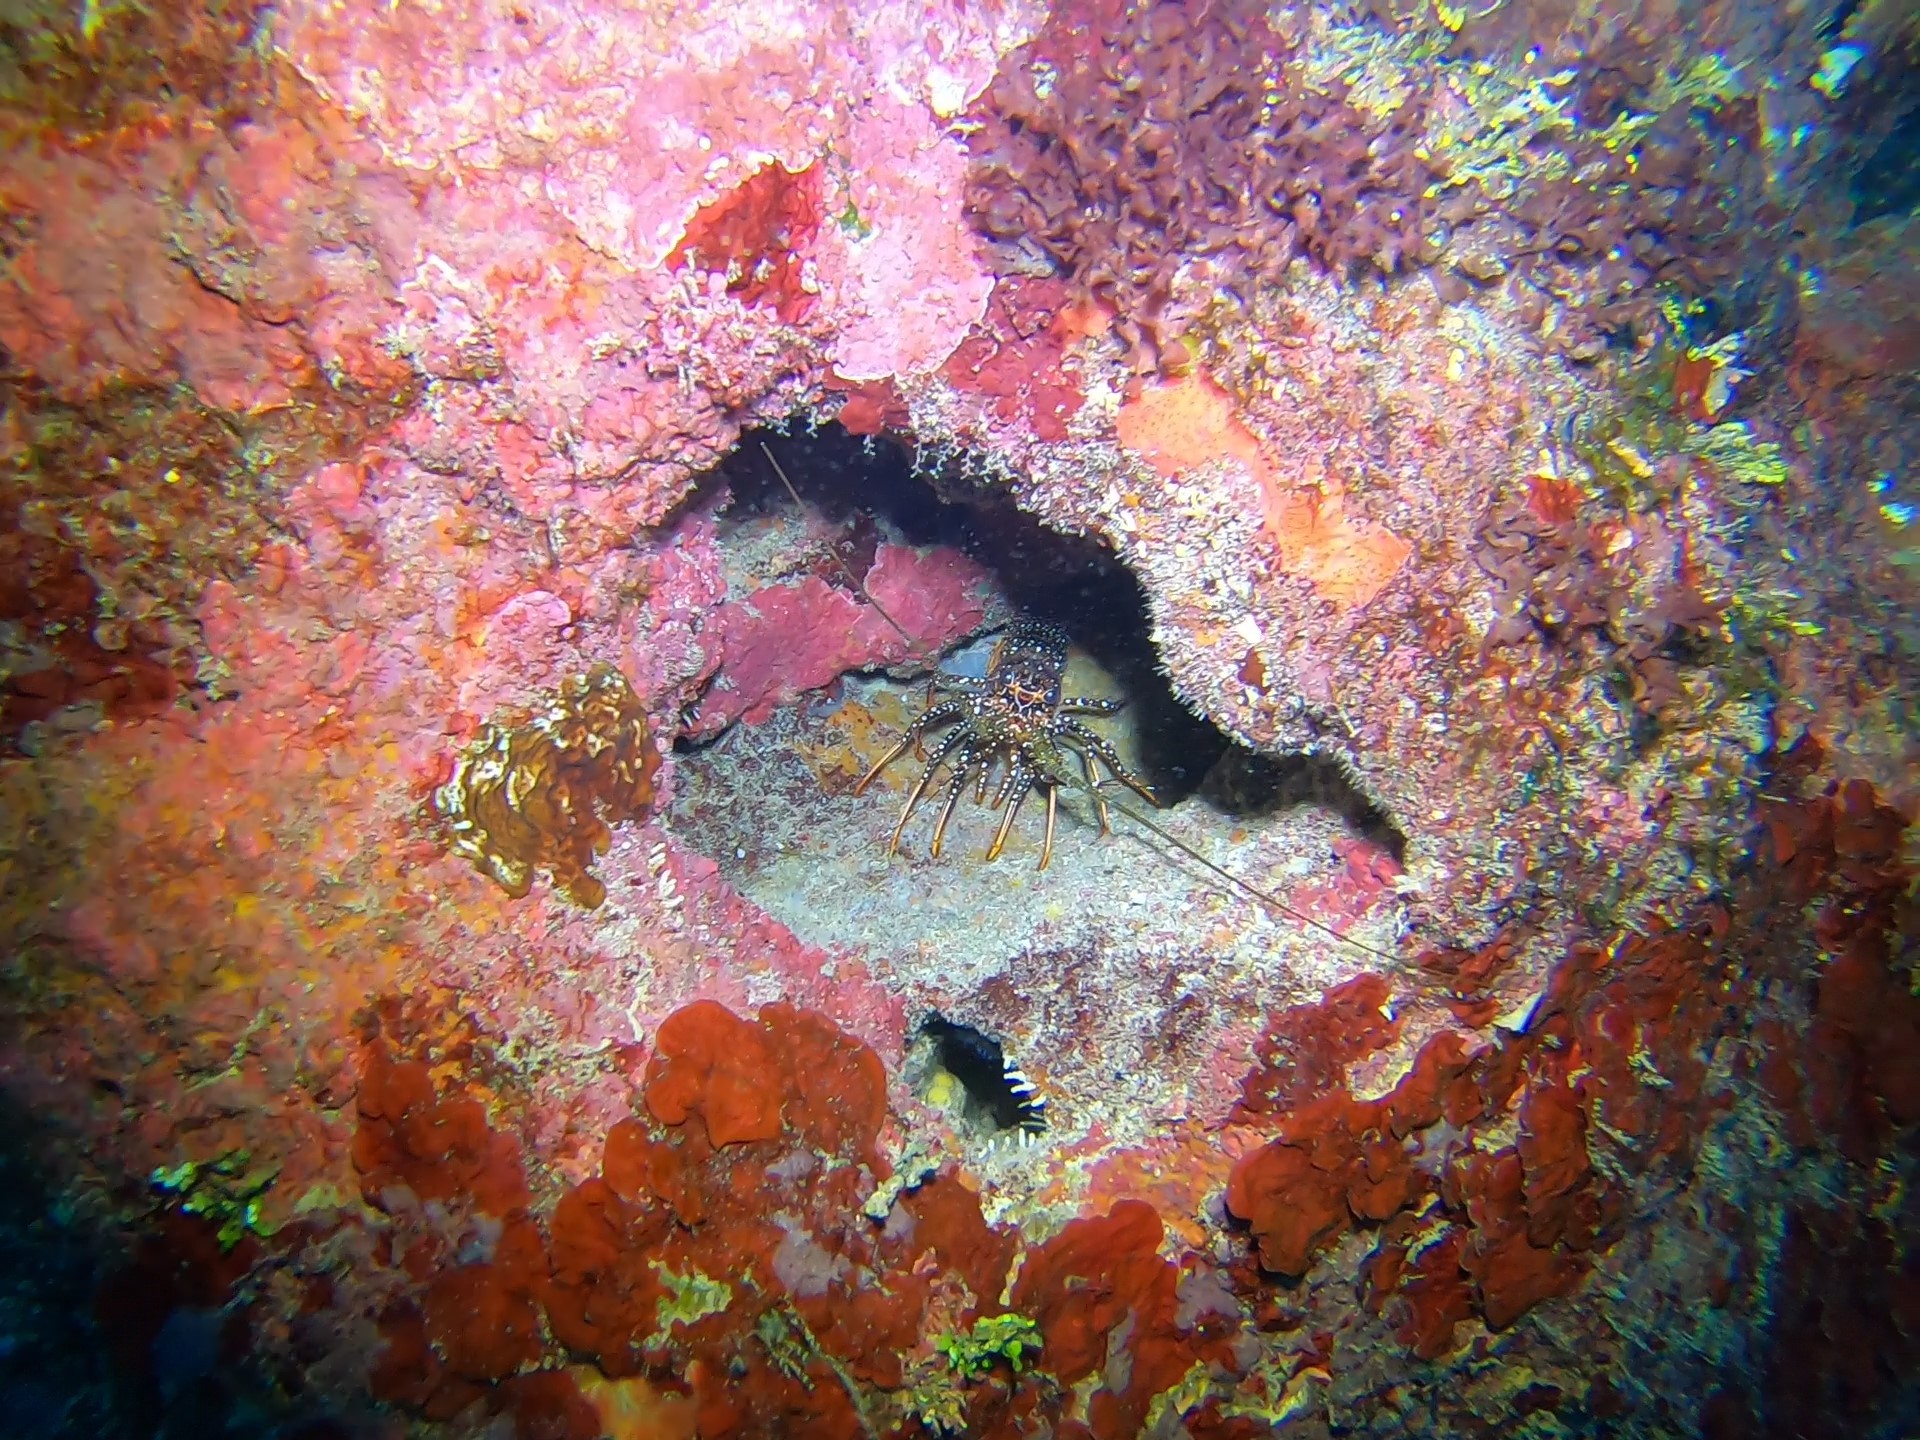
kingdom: Animalia
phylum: Arthropoda
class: Malacostraca
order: Decapoda
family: Palinuridae
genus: Panulirus
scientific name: Panulirus guttatus
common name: Spotted spiny lobster
